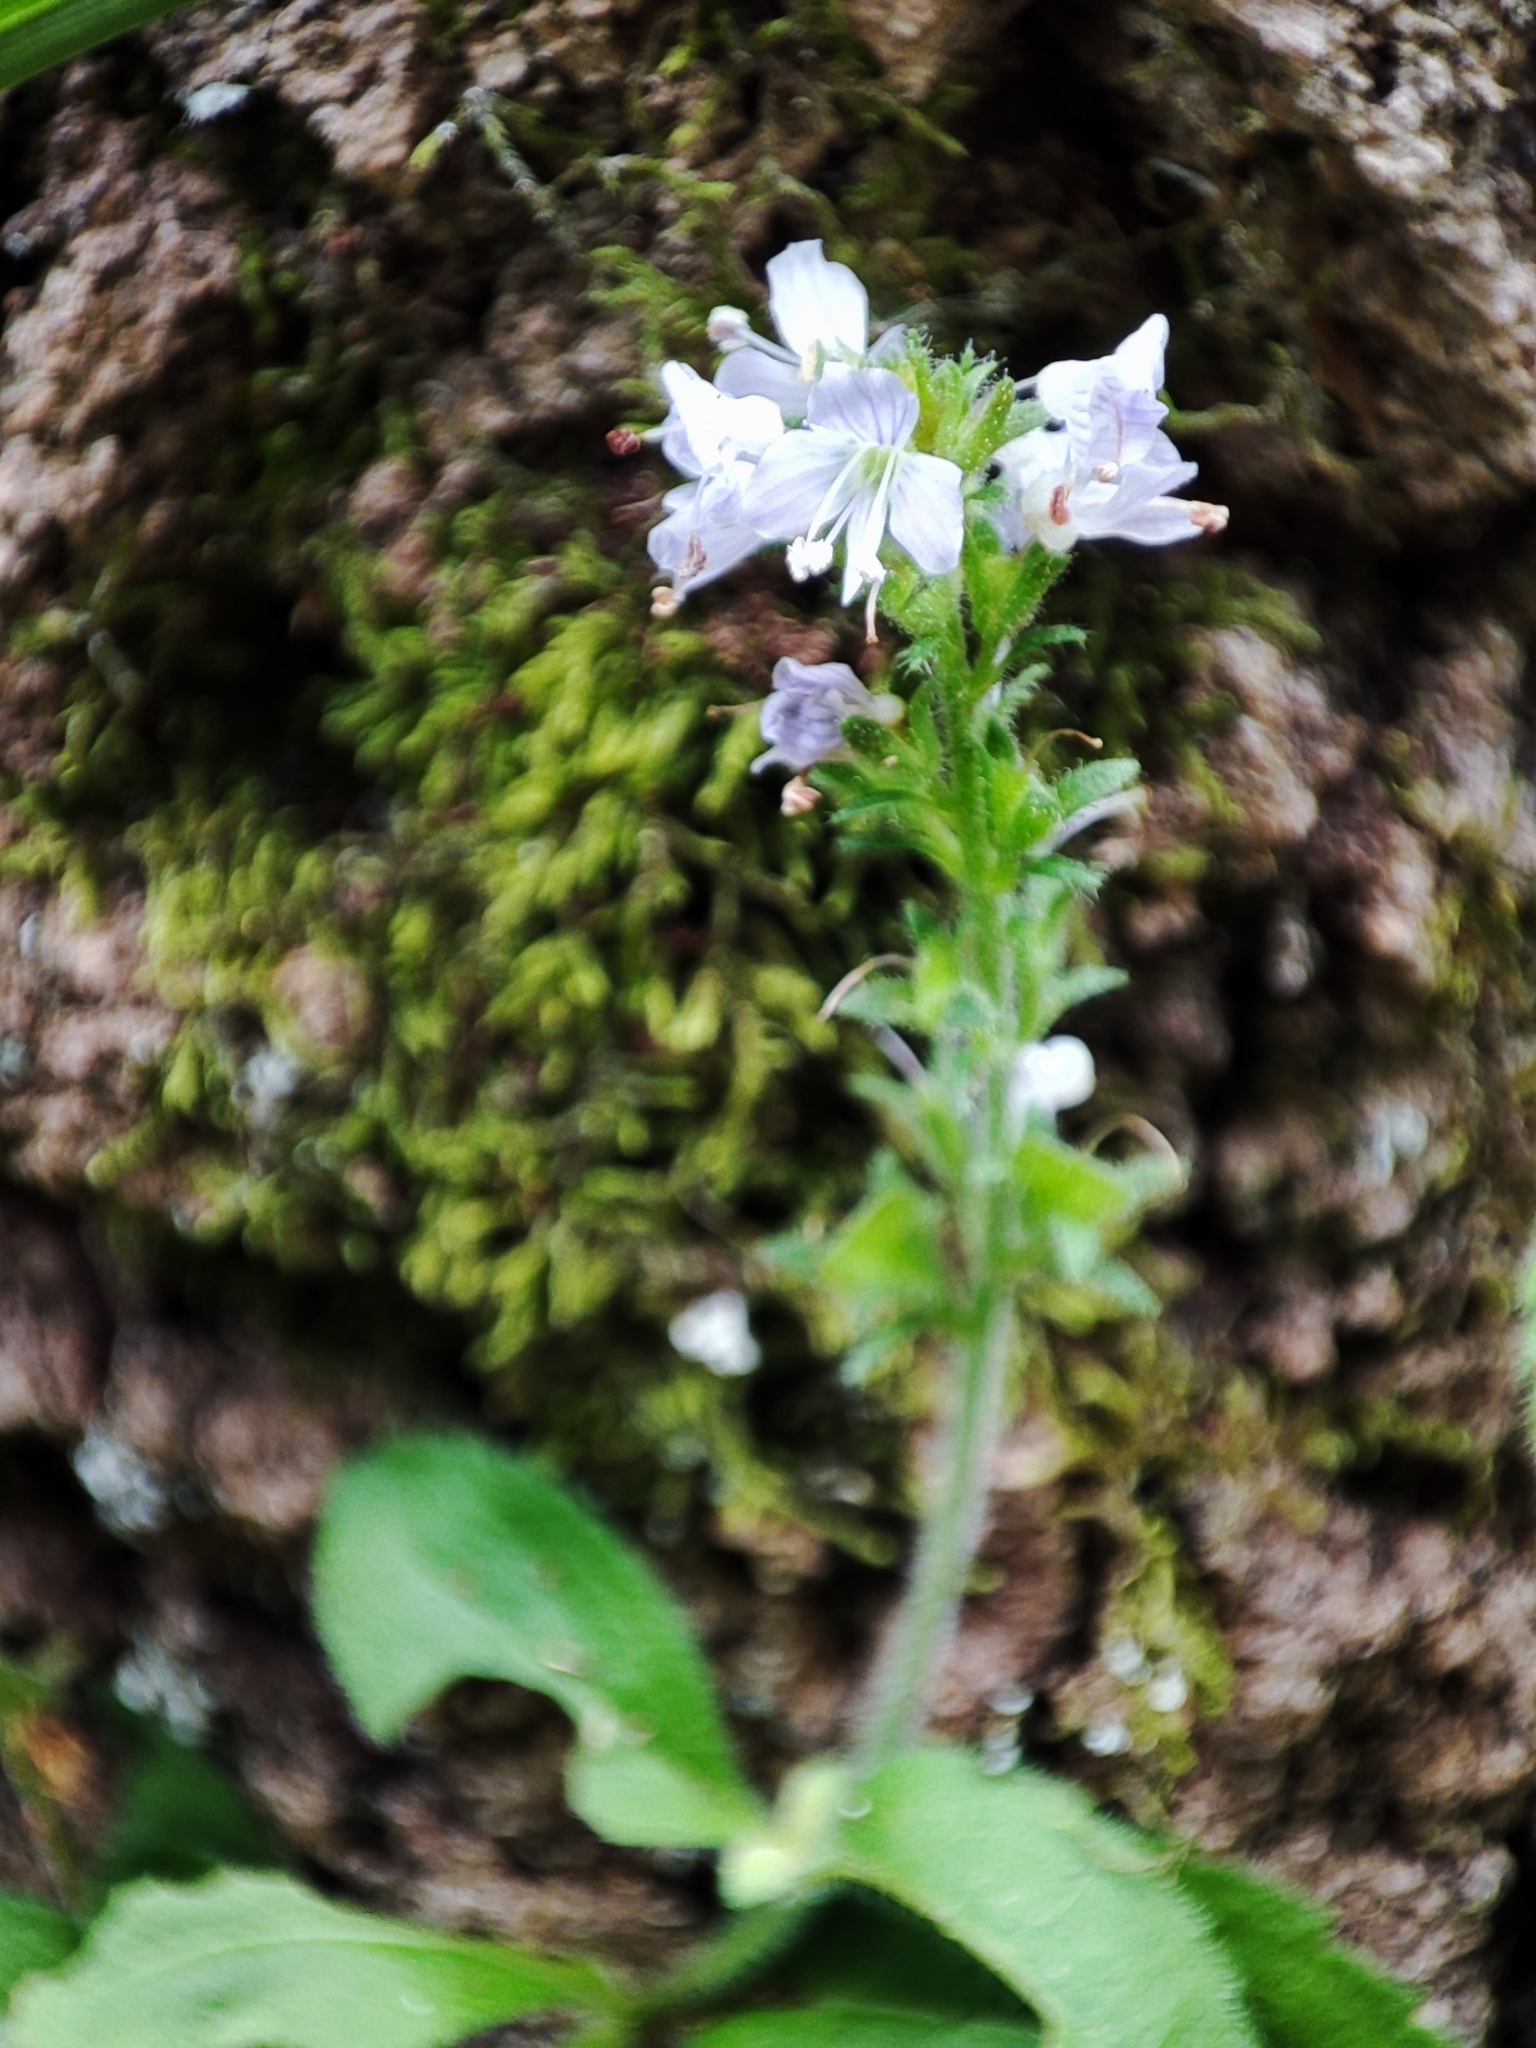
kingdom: Plantae
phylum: Tracheophyta
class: Magnoliopsida
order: Lamiales
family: Plantaginaceae
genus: Veronica
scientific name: Veronica officinalis
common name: Common speedwell
